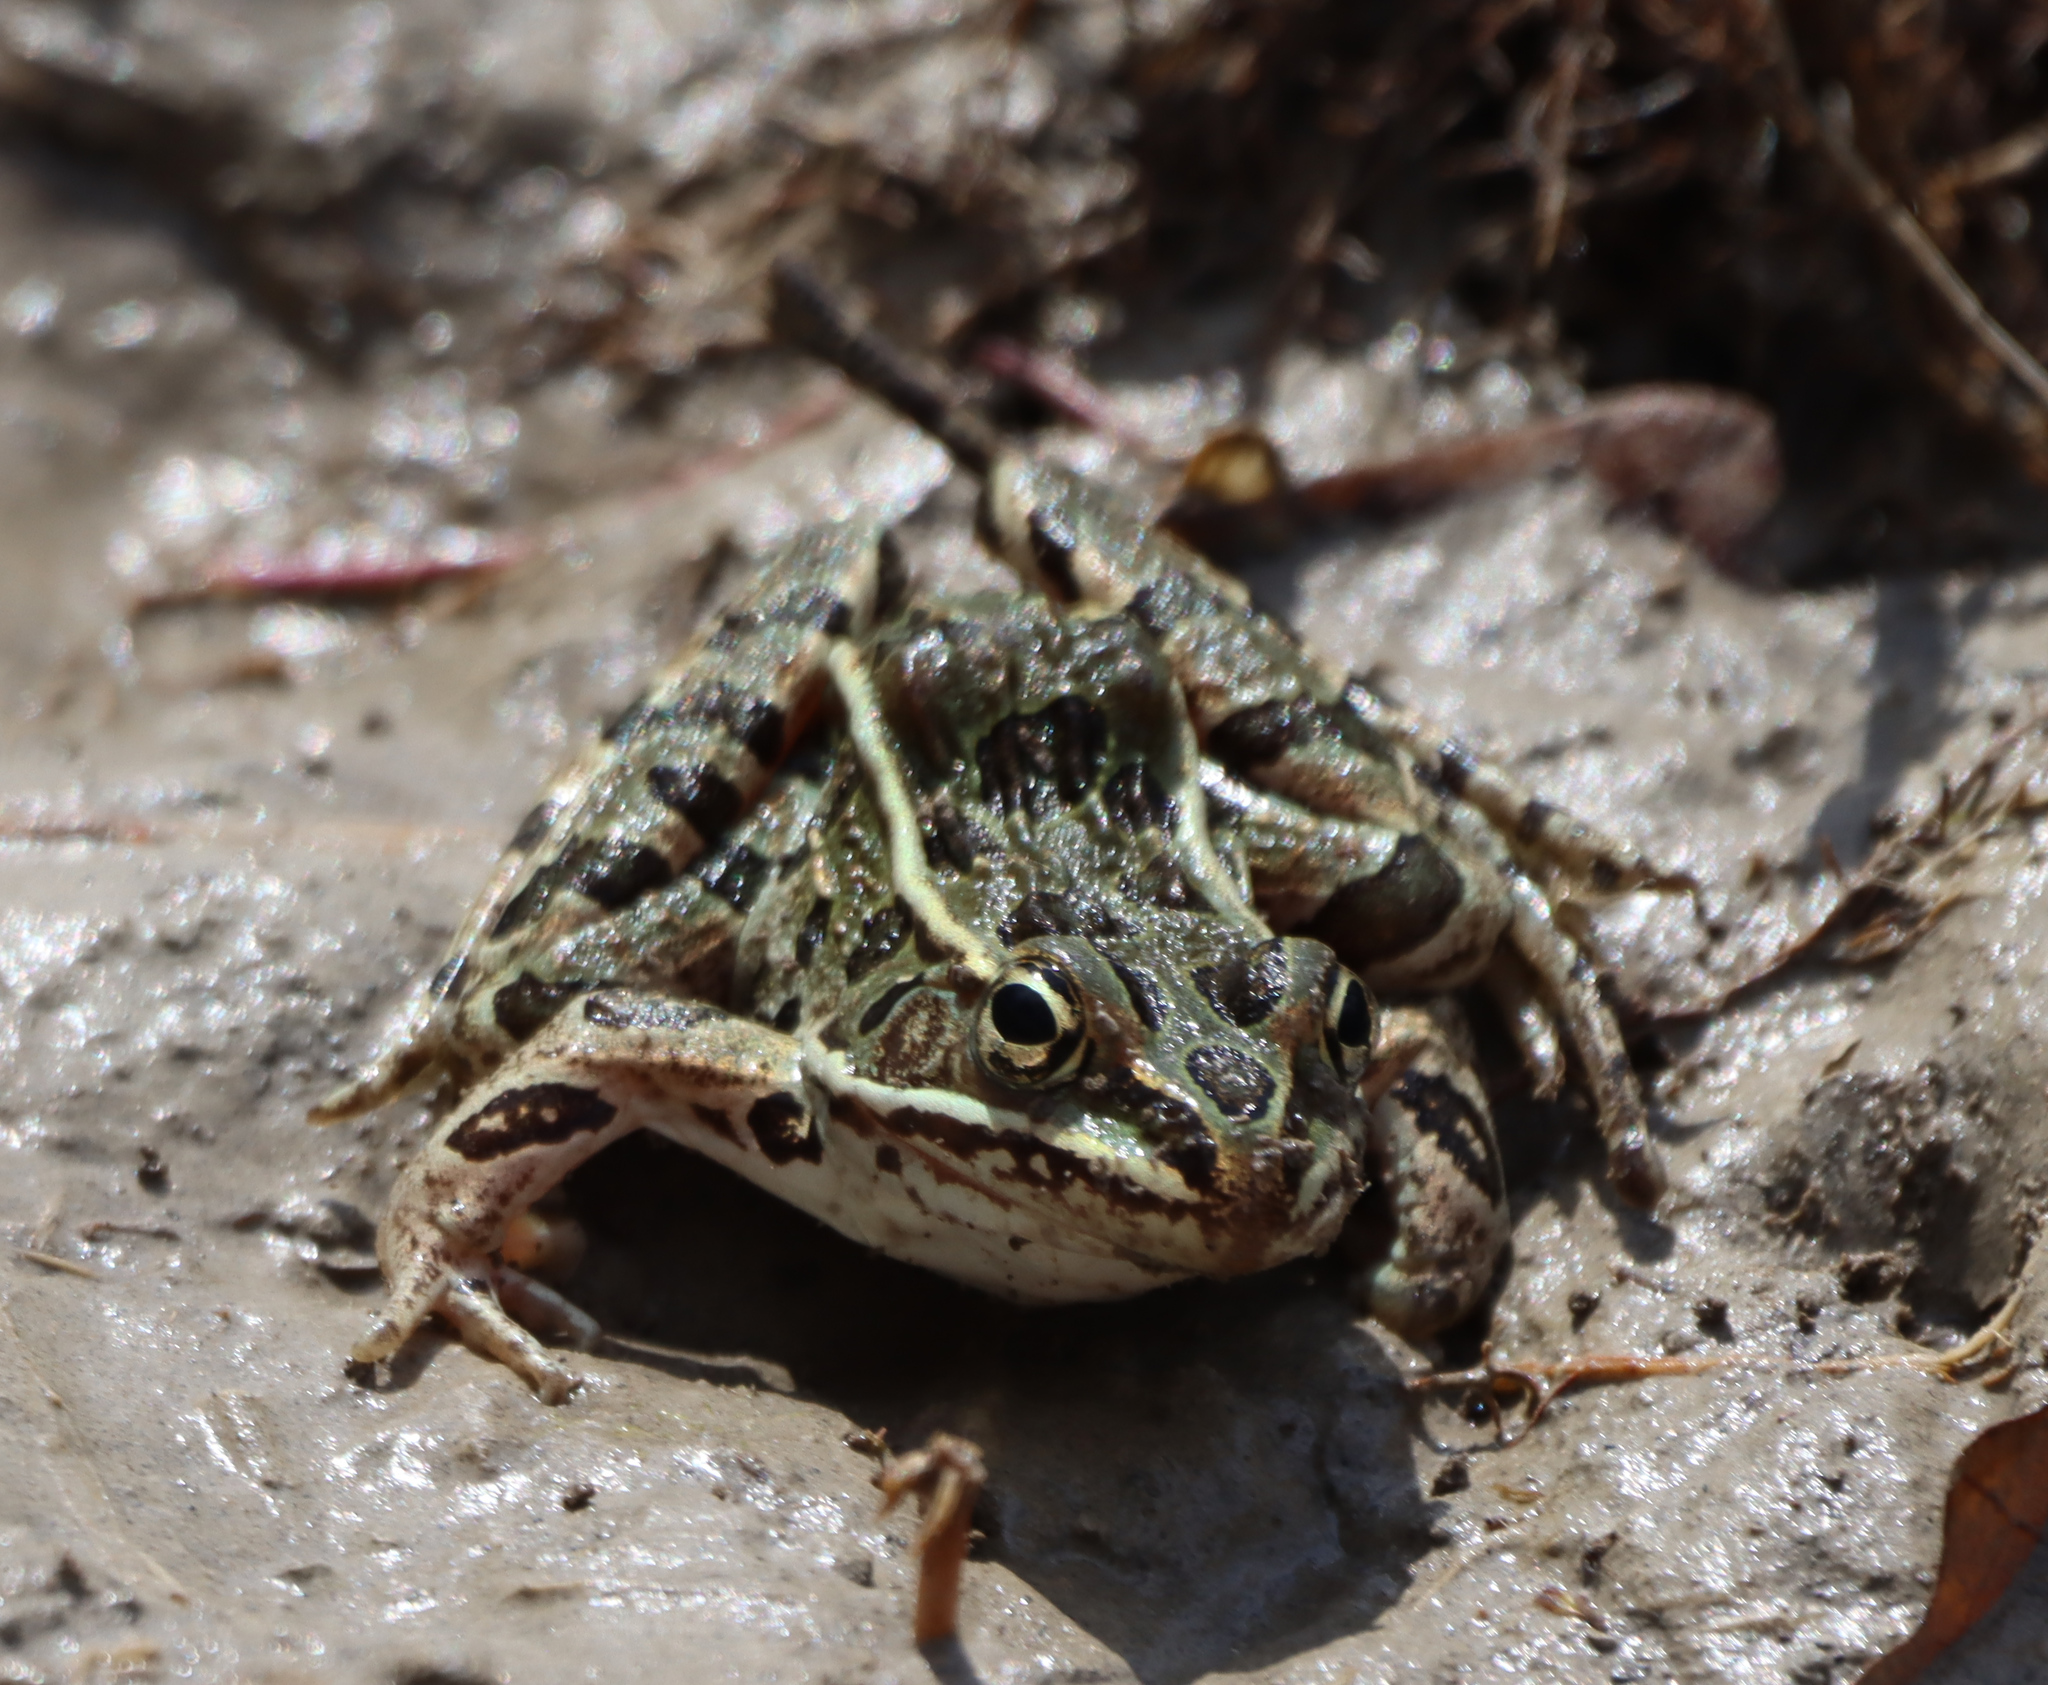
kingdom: Animalia
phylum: Chordata
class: Amphibia
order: Anura
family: Ranidae
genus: Lithobates
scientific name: Lithobates pipiens
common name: Northern leopard frog
